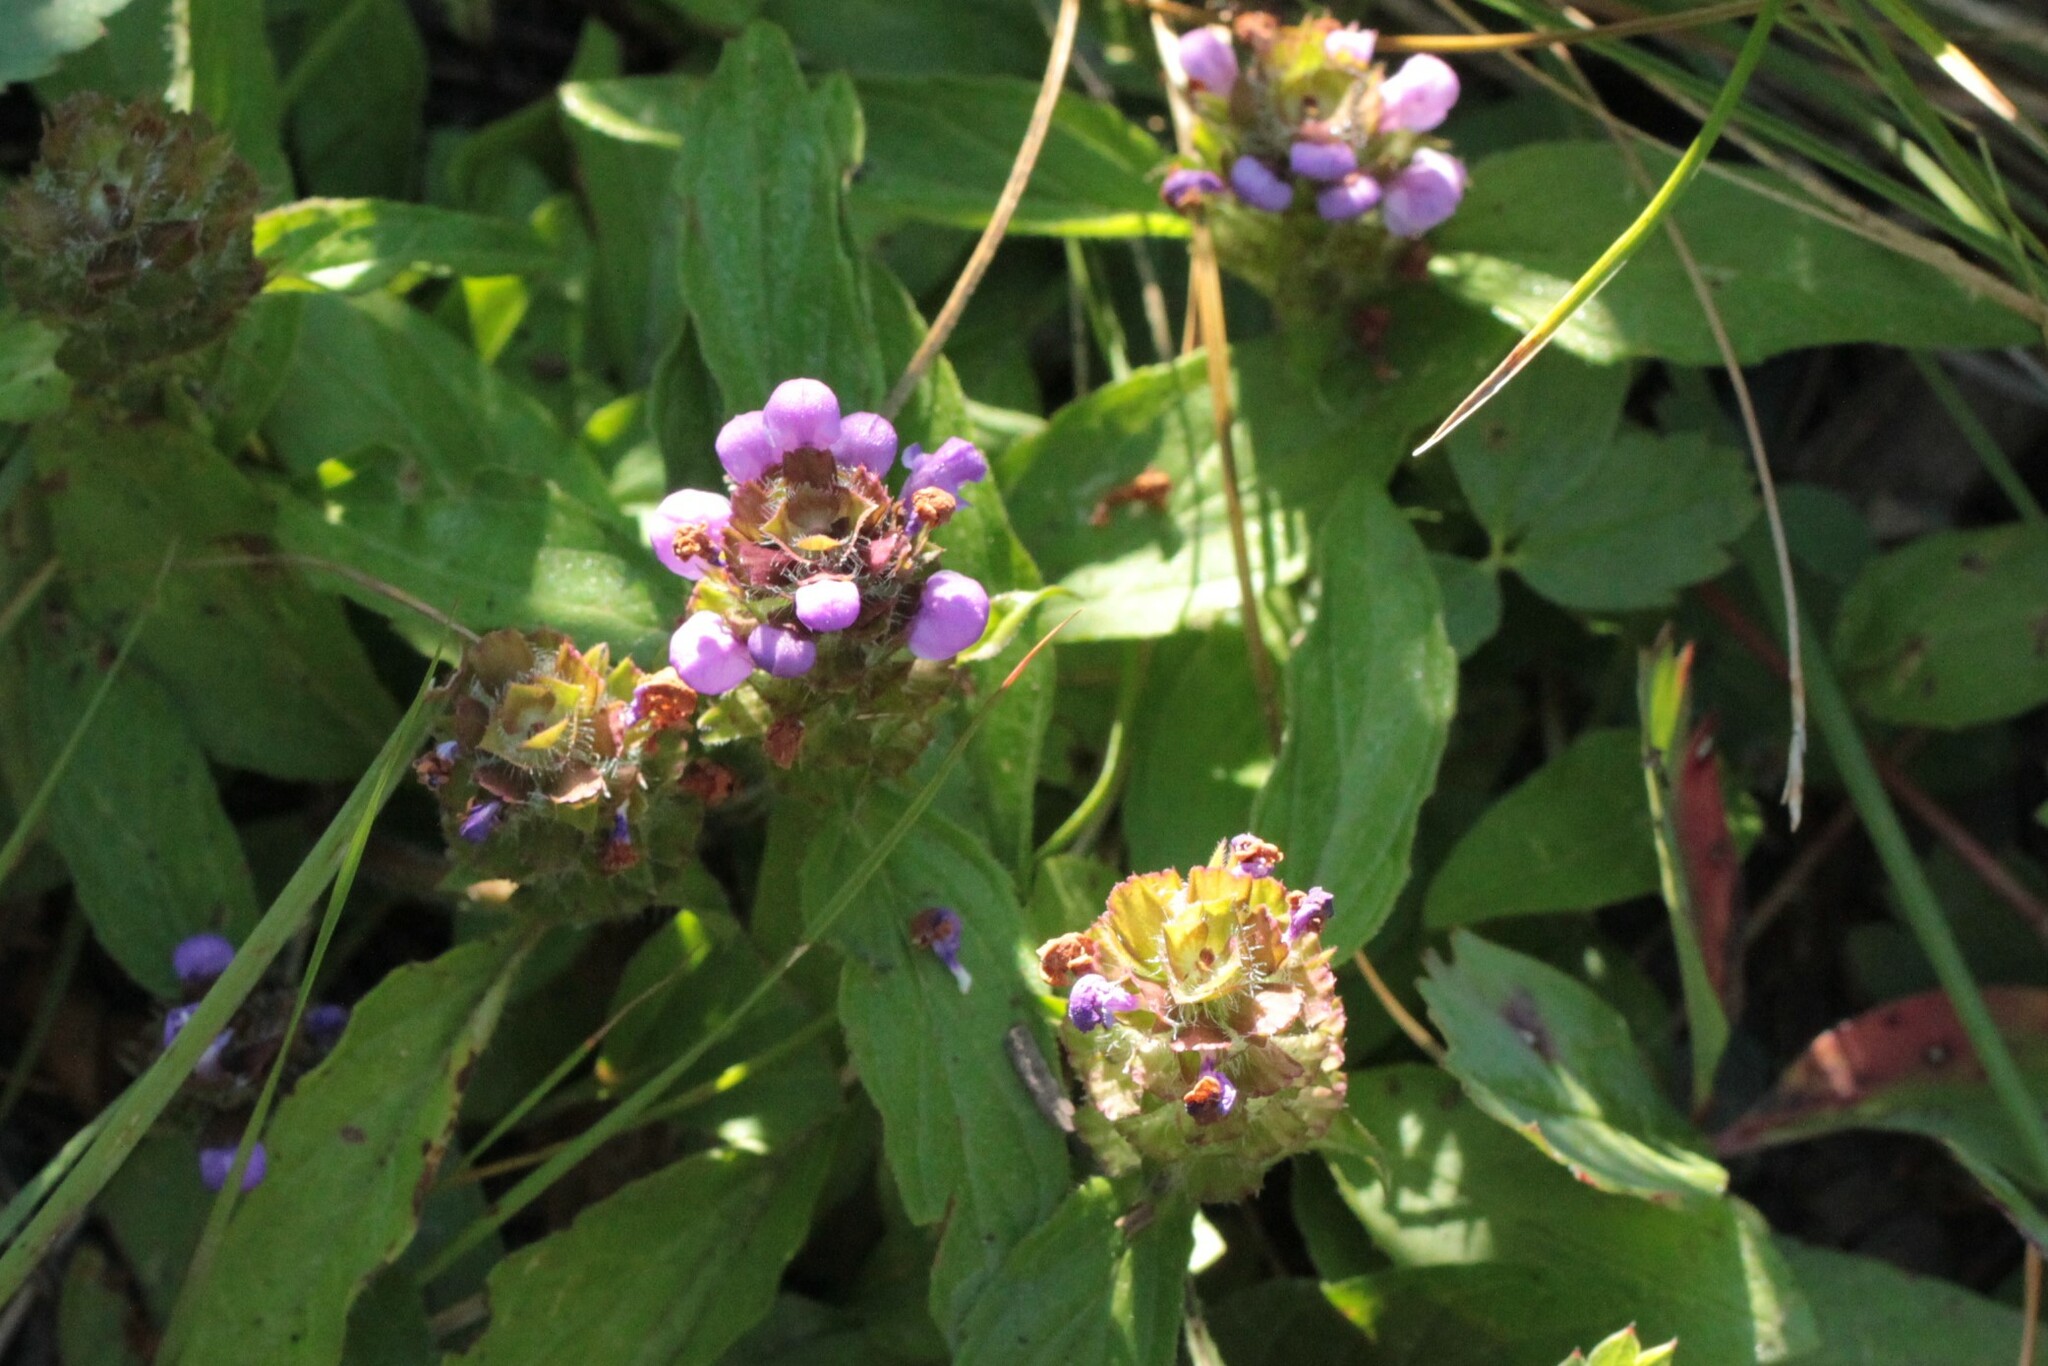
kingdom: Plantae
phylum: Tracheophyta
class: Magnoliopsida
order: Lamiales
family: Lamiaceae
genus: Prunella
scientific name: Prunella vulgaris
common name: Heal-all
